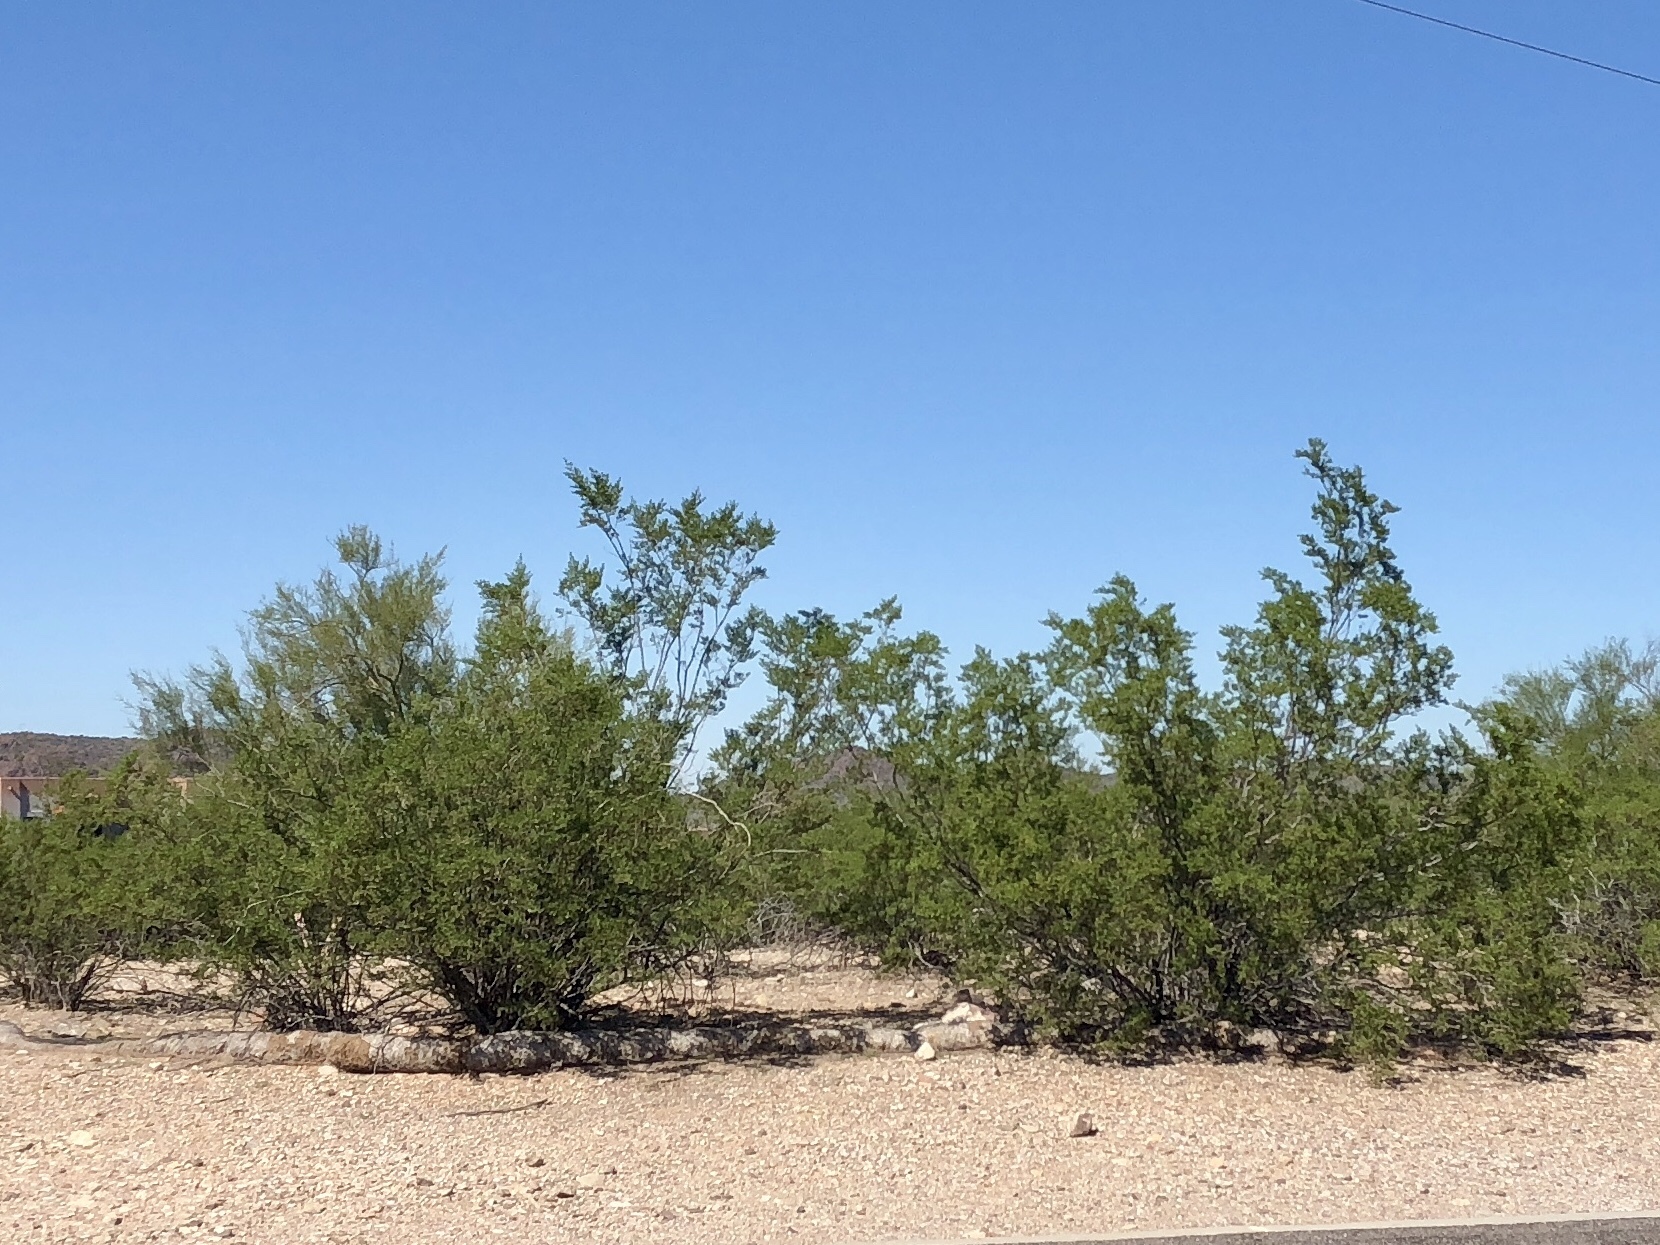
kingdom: Plantae
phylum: Tracheophyta
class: Magnoliopsida
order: Zygophyllales
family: Zygophyllaceae
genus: Larrea
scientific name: Larrea tridentata
